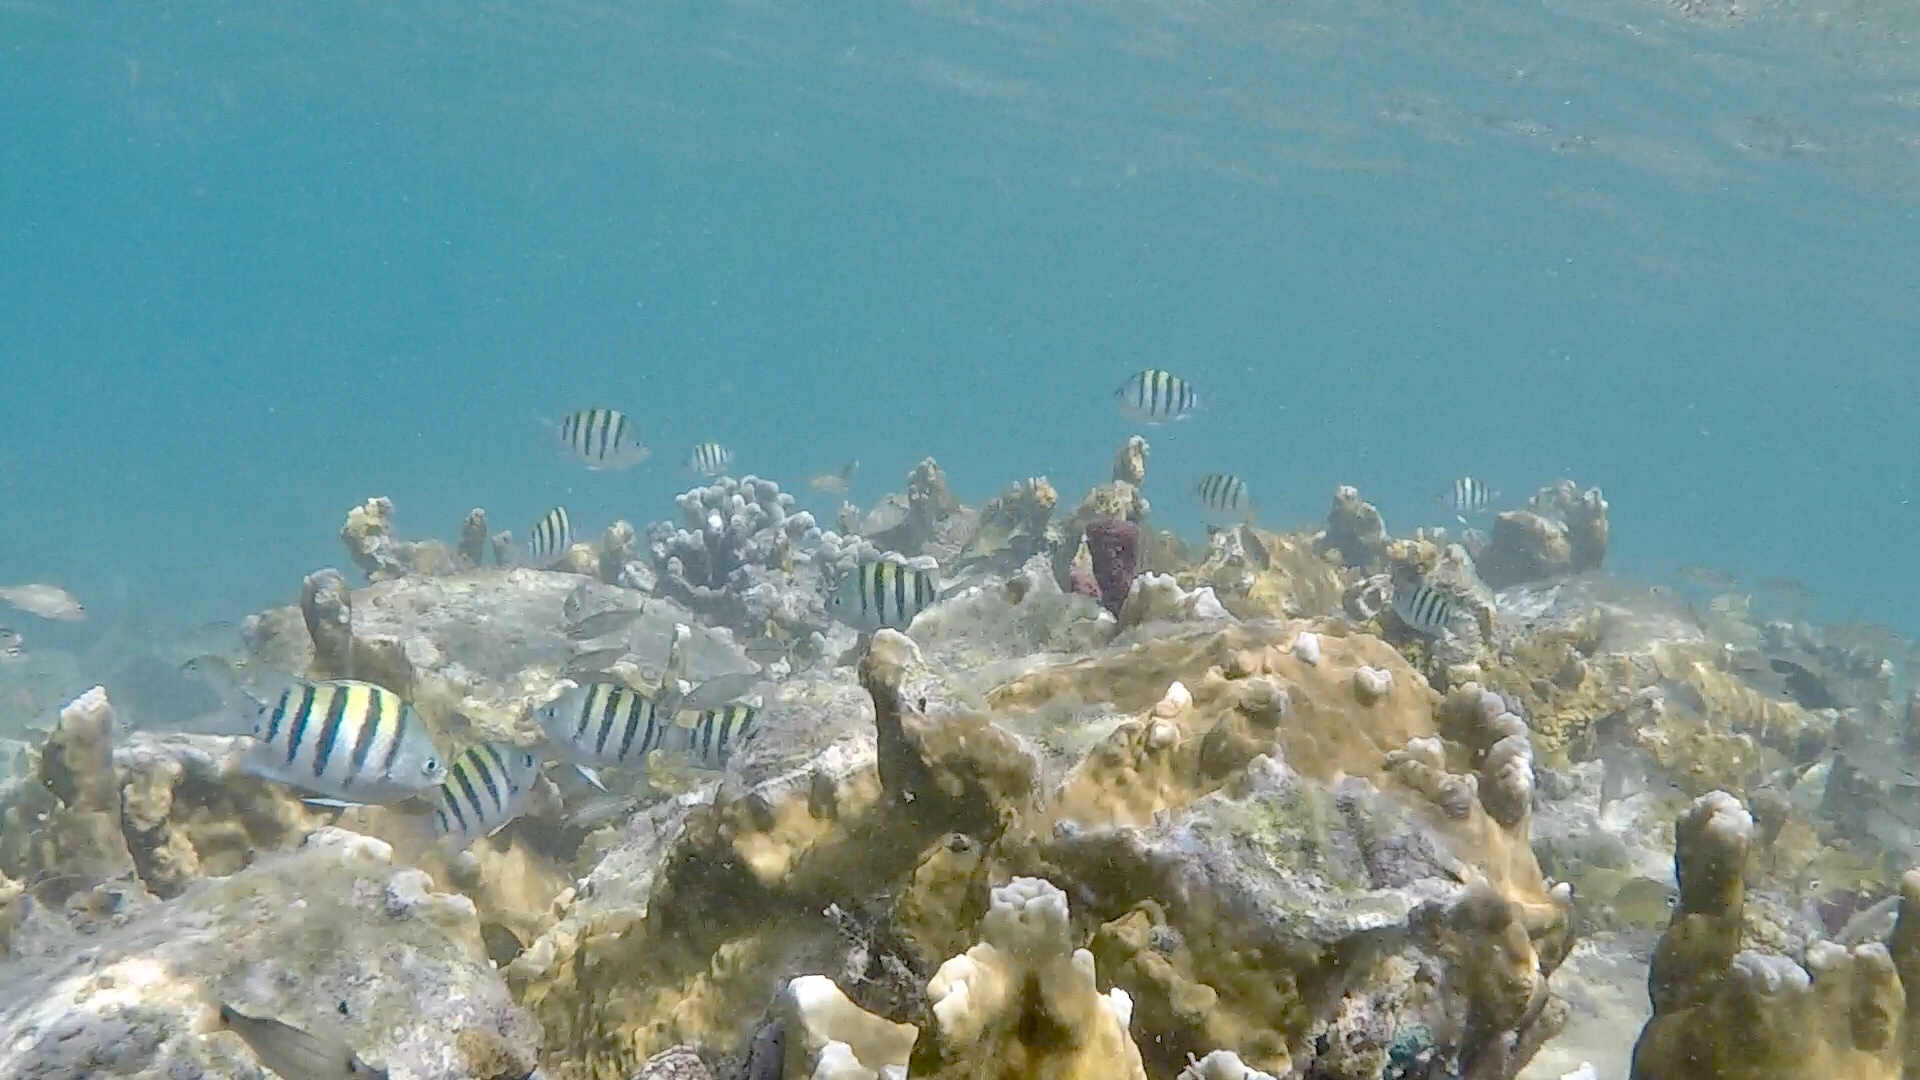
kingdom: Animalia
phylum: Chordata
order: Perciformes
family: Pomacentridae
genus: Abudefduf
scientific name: Abudefduf saxatilis
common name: Sergeant major
